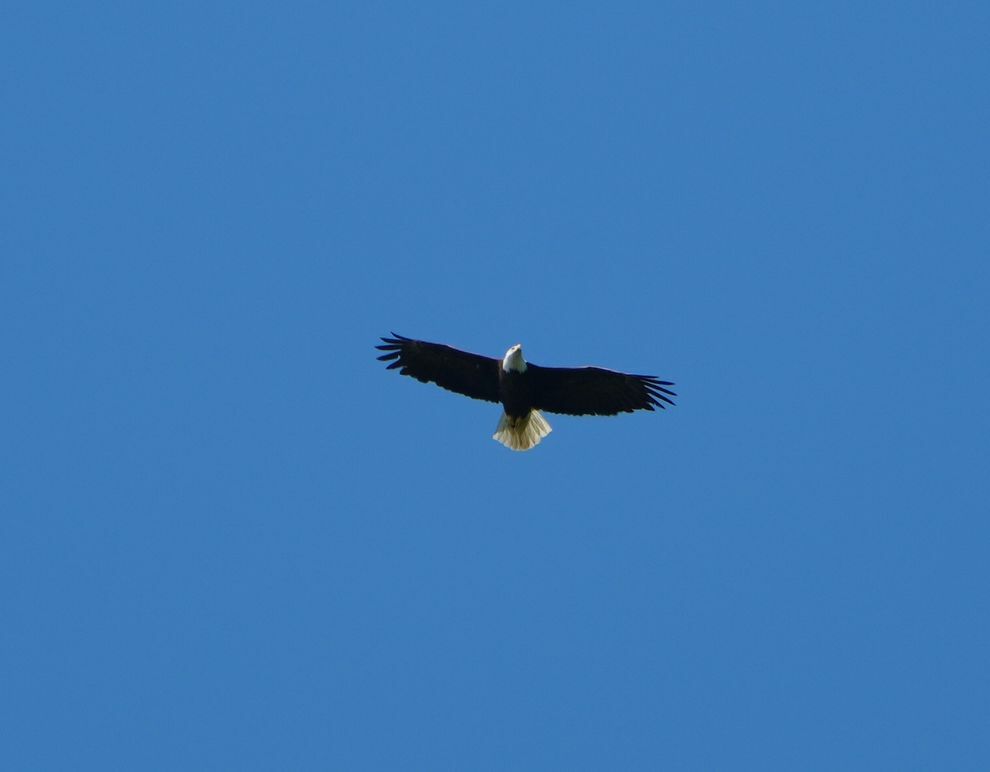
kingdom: Animalia
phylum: Chordata
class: Aves
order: Accipitriformes
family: Accipitridae
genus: Haliaeetus
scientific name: Haliaeetus leucocephalus
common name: Bald eagle
